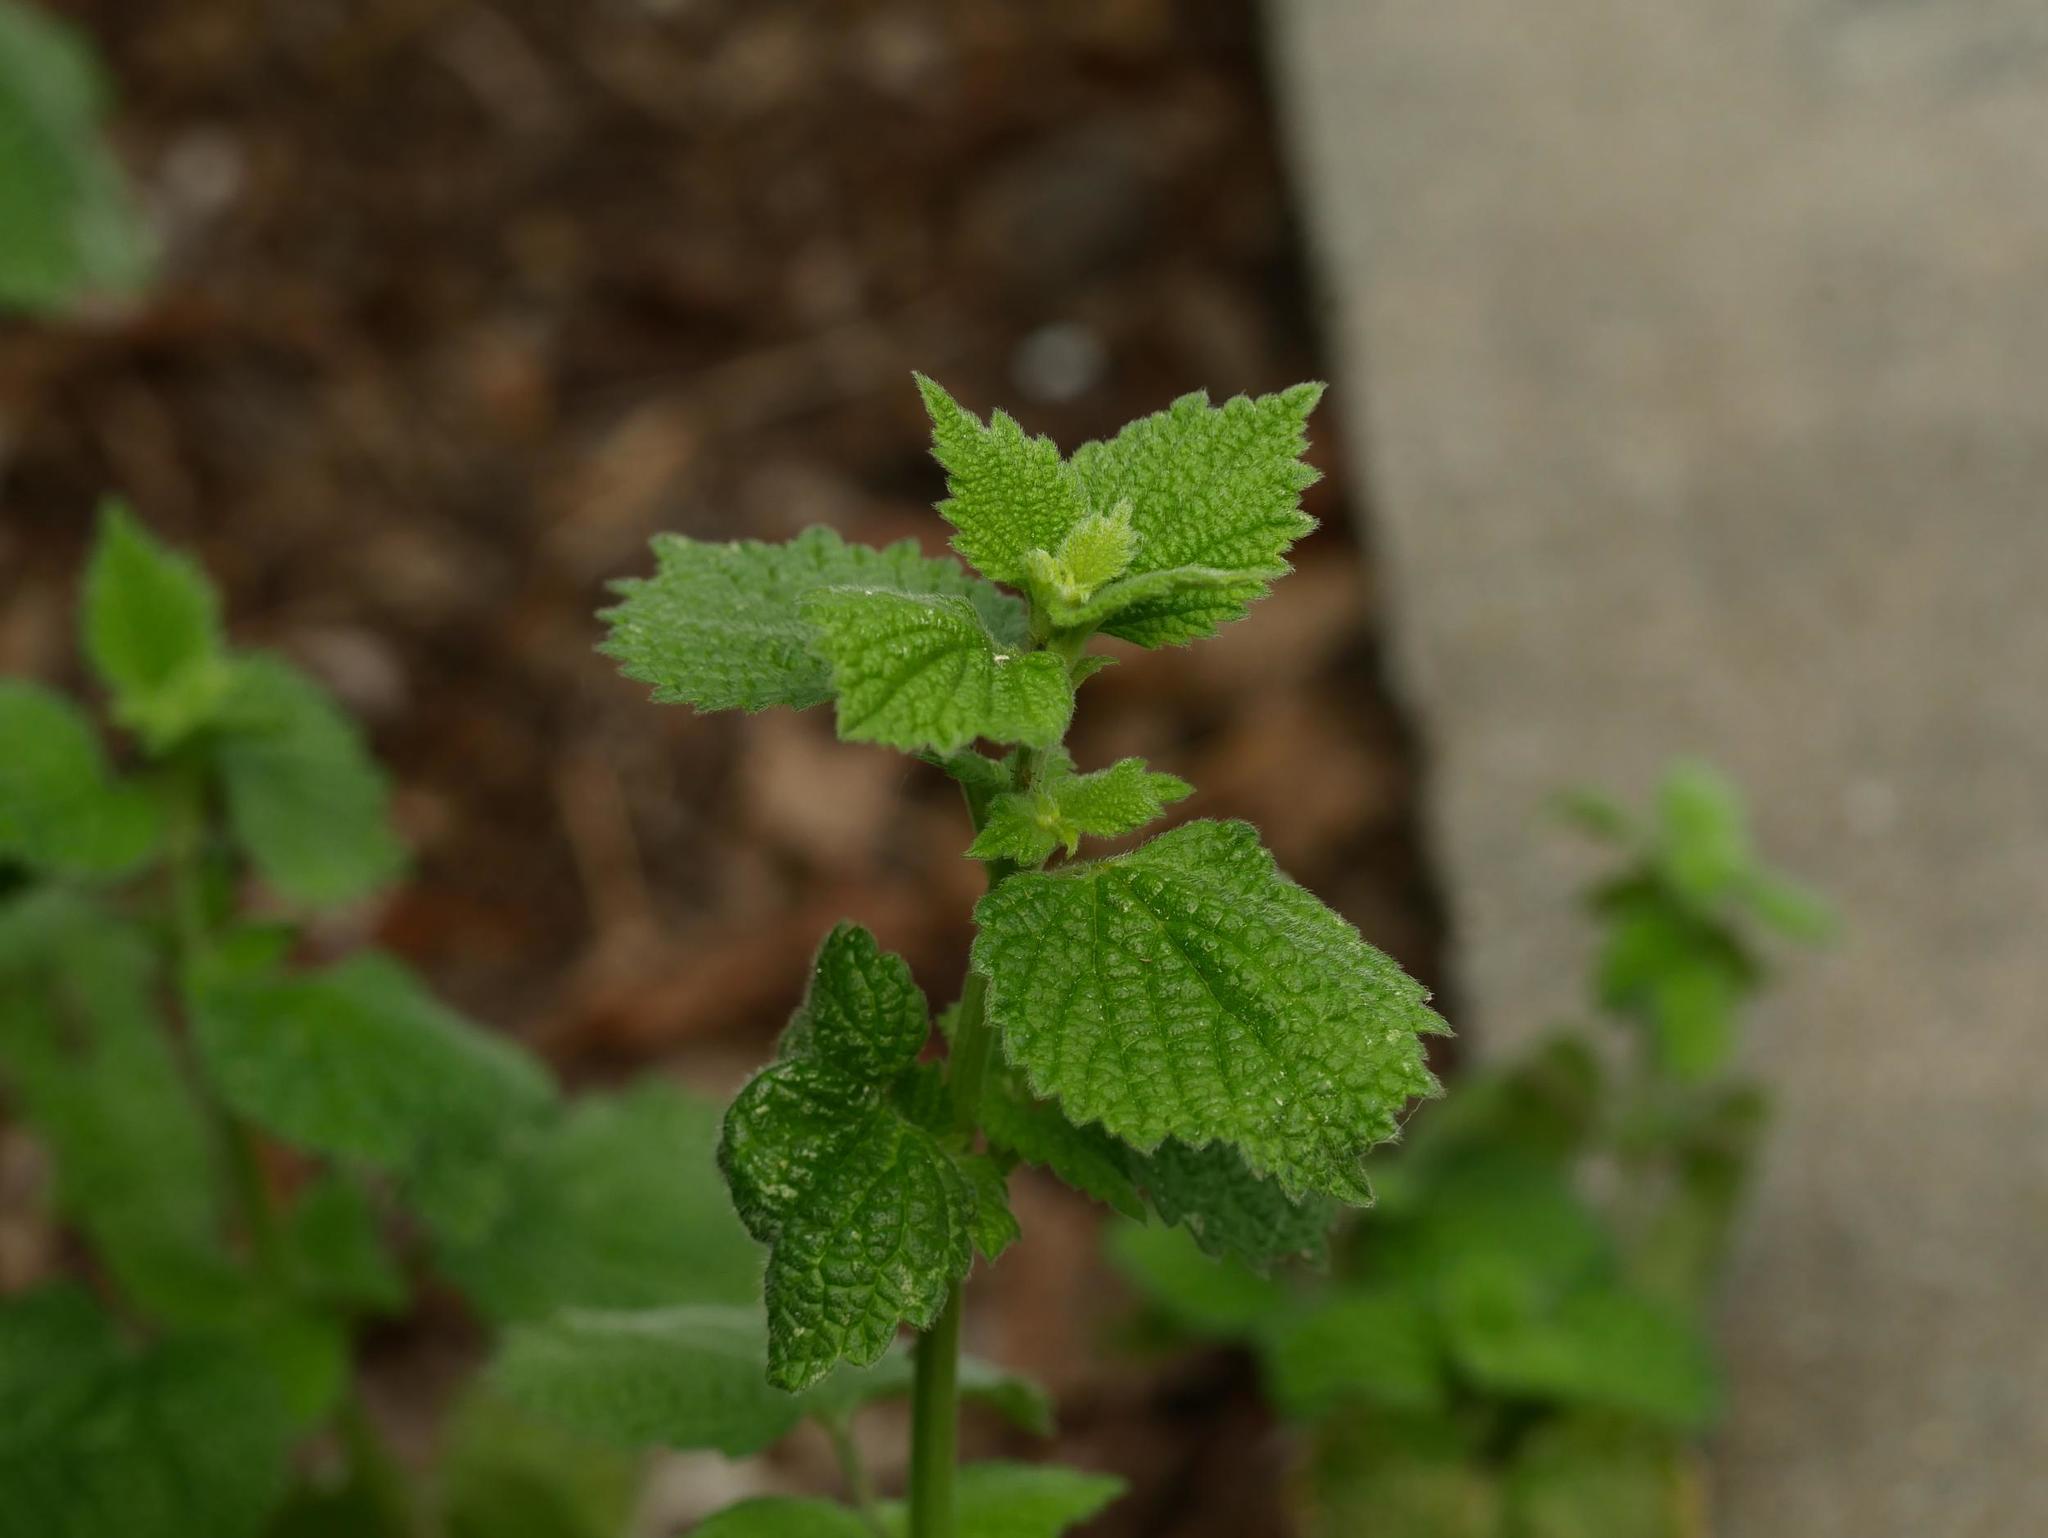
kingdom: Plantae
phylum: Tracheophyta
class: Magnoliopsida
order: Lamiales
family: Lamiaceae
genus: Ballota
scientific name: Ballota nigra
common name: Black horehound
